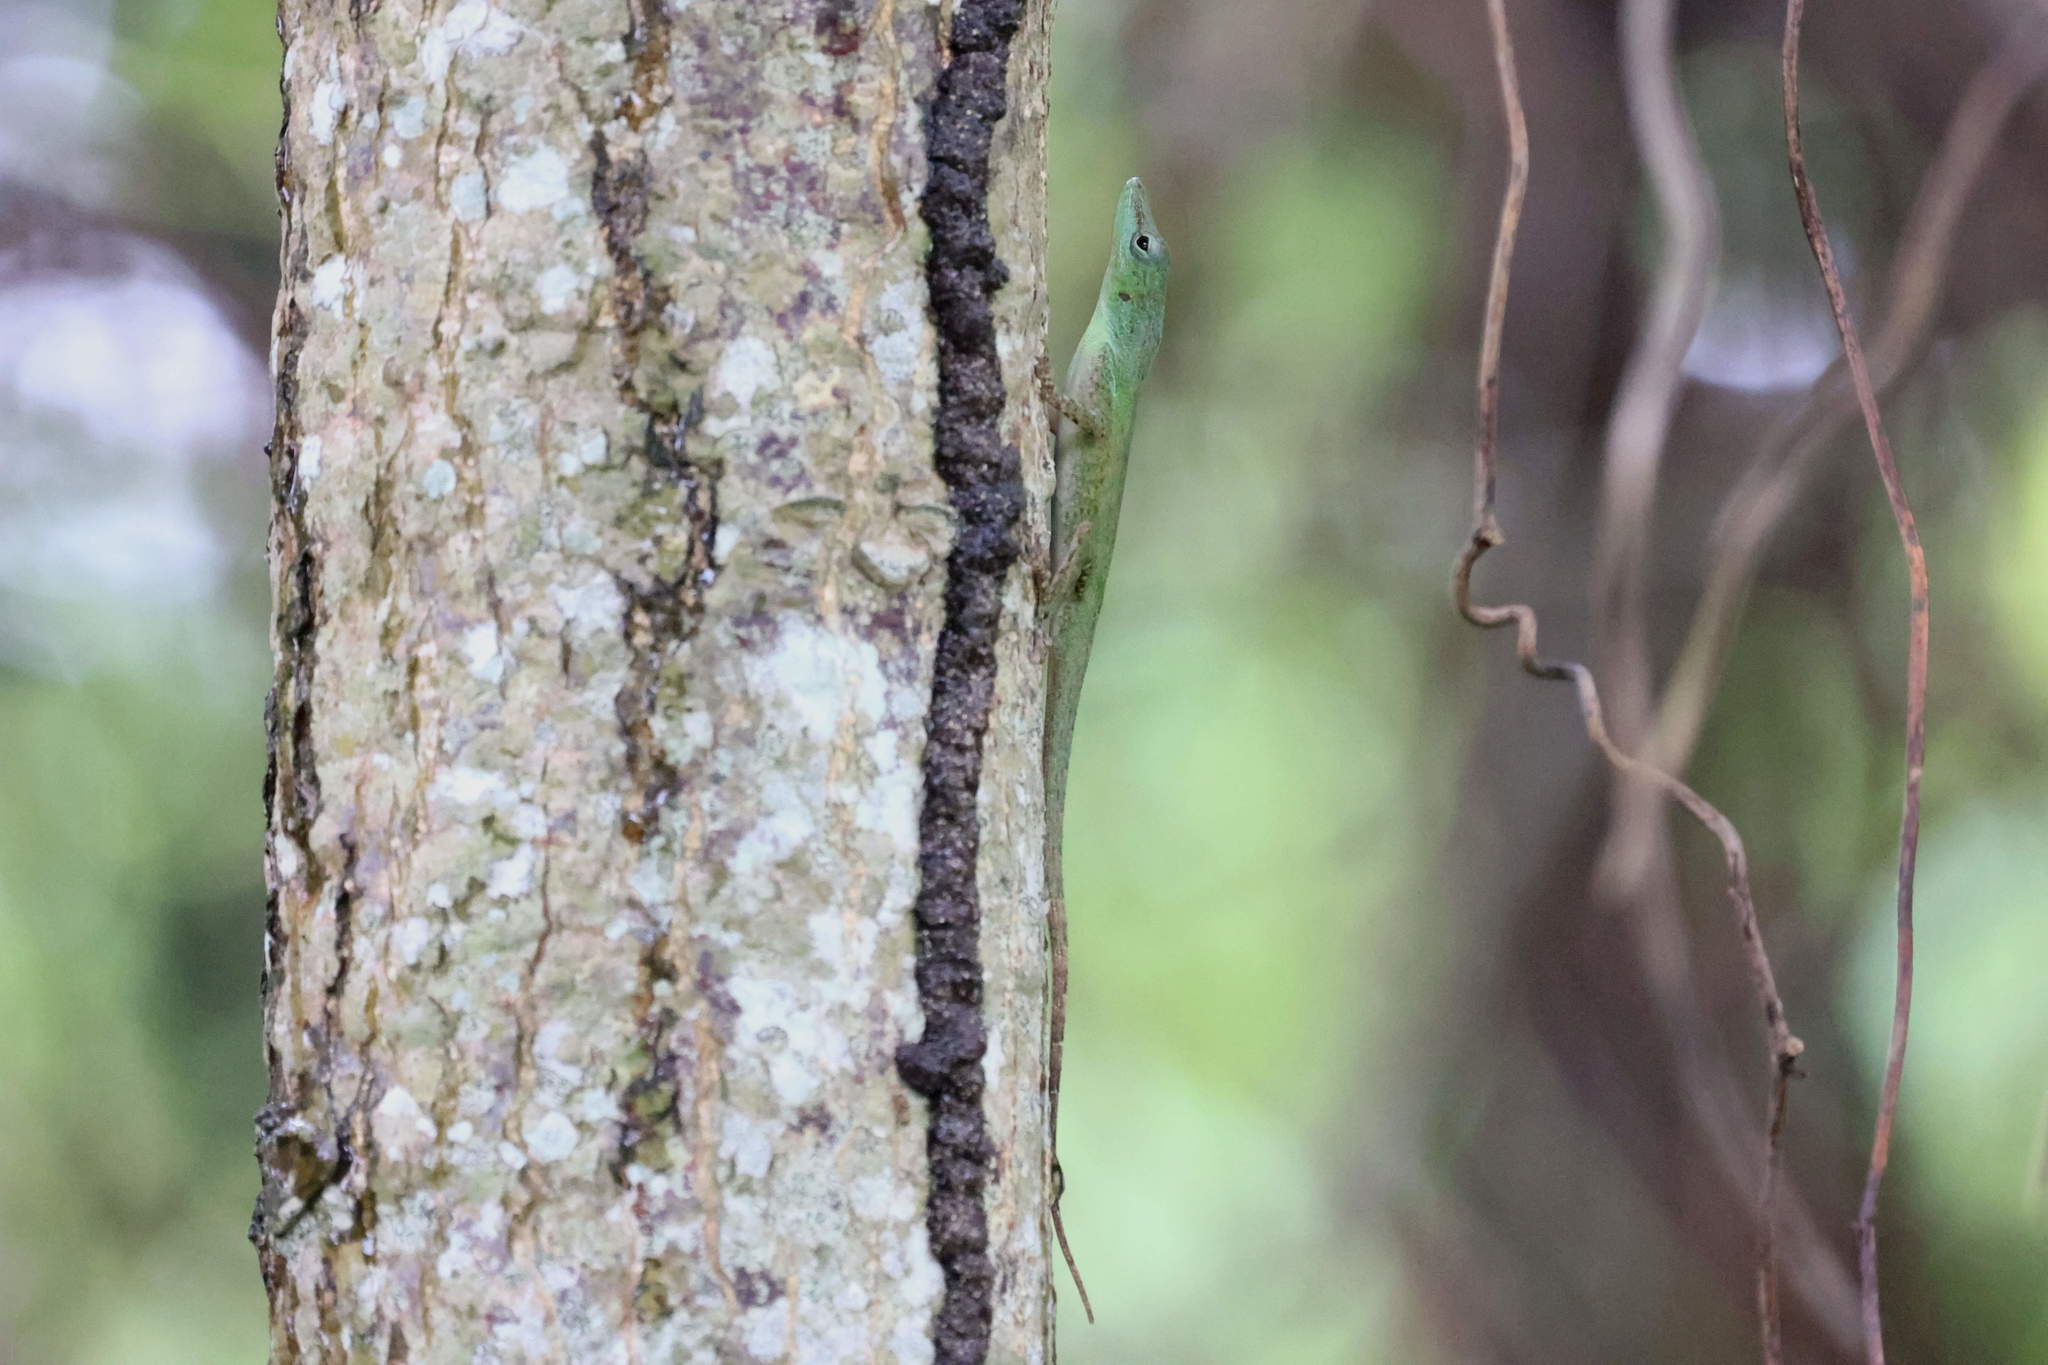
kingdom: Animalia
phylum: Chordata
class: Squamata
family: Dactyloidae
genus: Anolis
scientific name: Anolis marmoratus
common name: Guadeloupe anole
